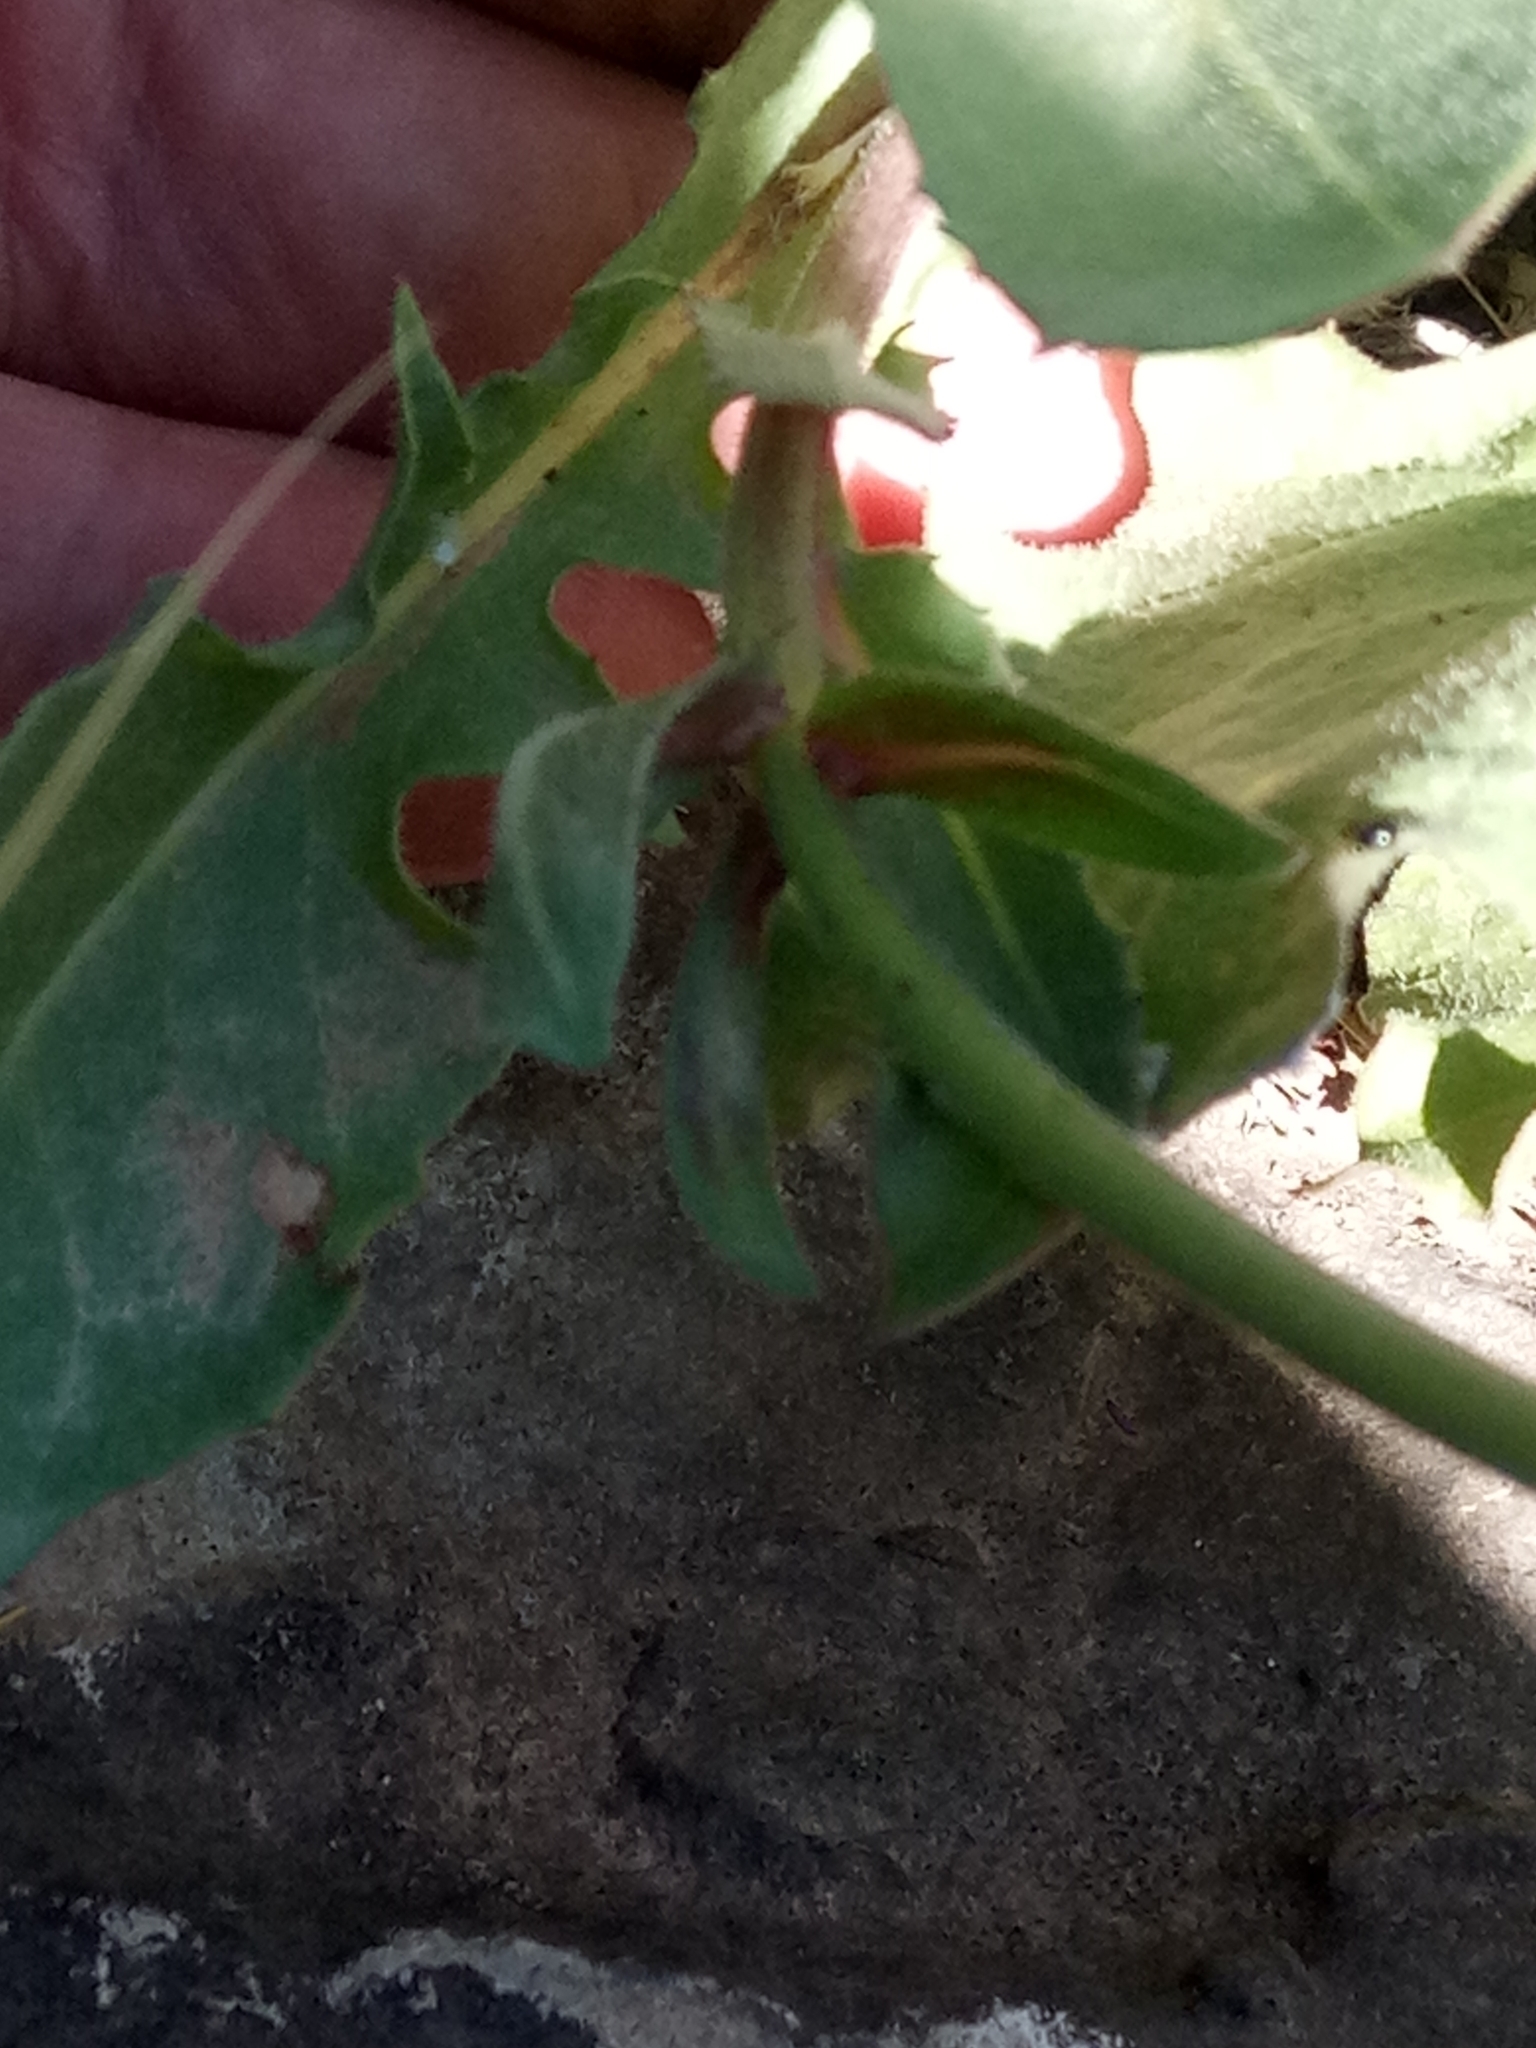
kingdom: Plantae
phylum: Tracheophyta
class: Magnoliopsida
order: Asterales
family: Asteraceae
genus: Urospermum
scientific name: Urospermum dalechampii
